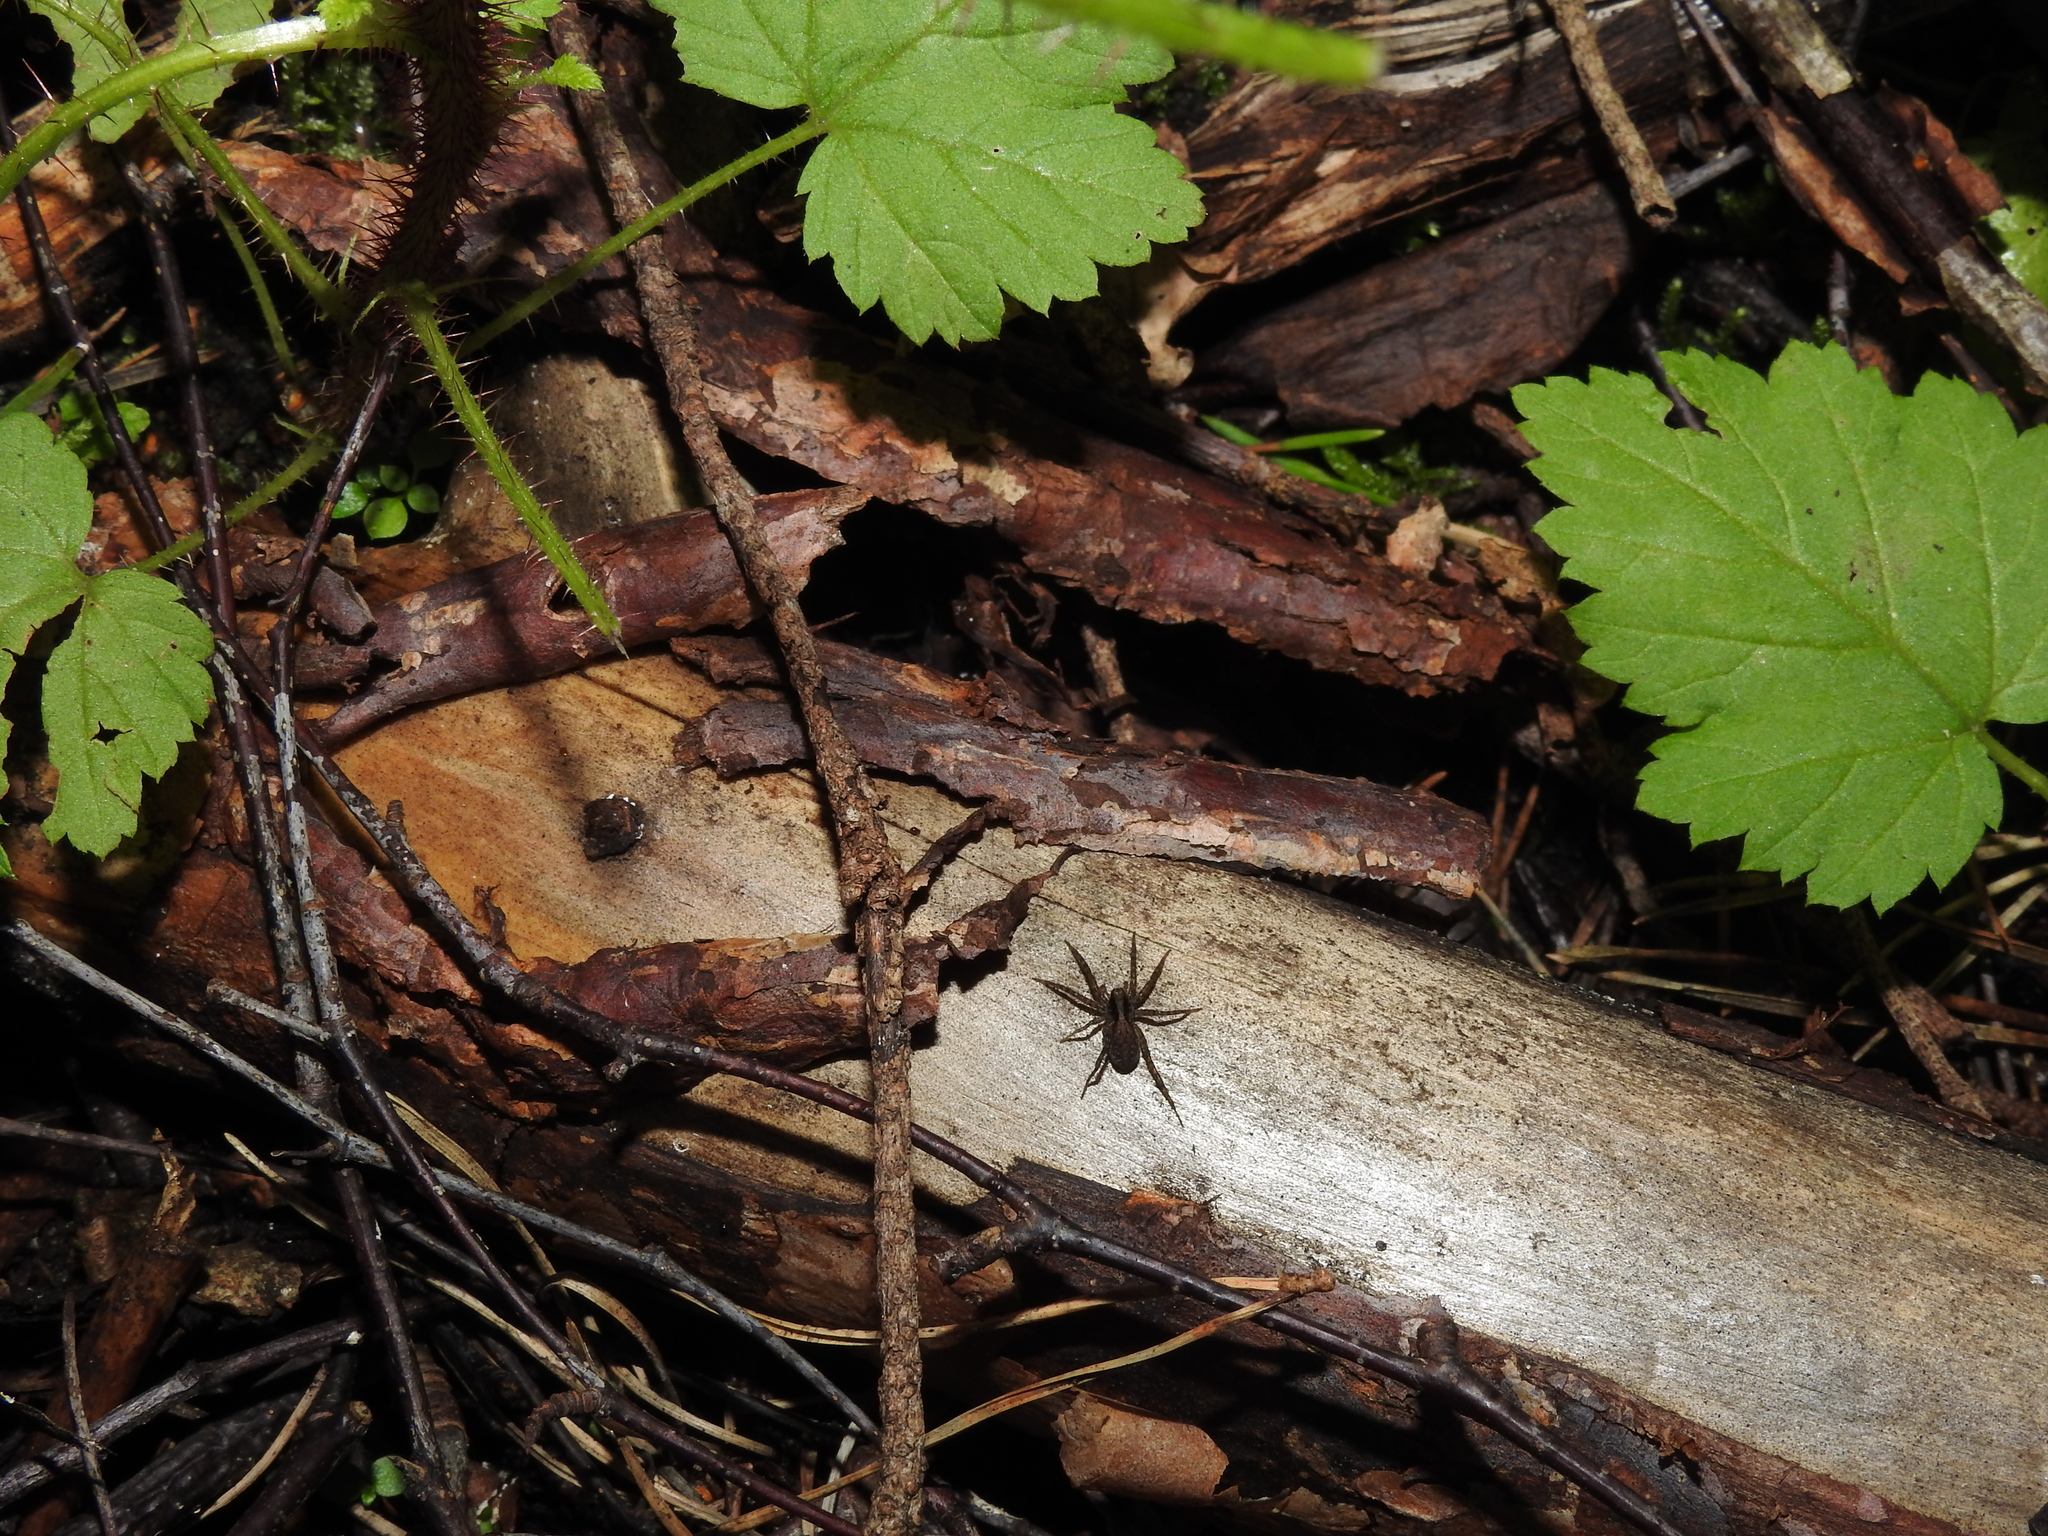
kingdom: Animalia
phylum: Arthropoda
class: Arachnida
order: Araneae
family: Lycosidae
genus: Pardosa
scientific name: Pardosa
